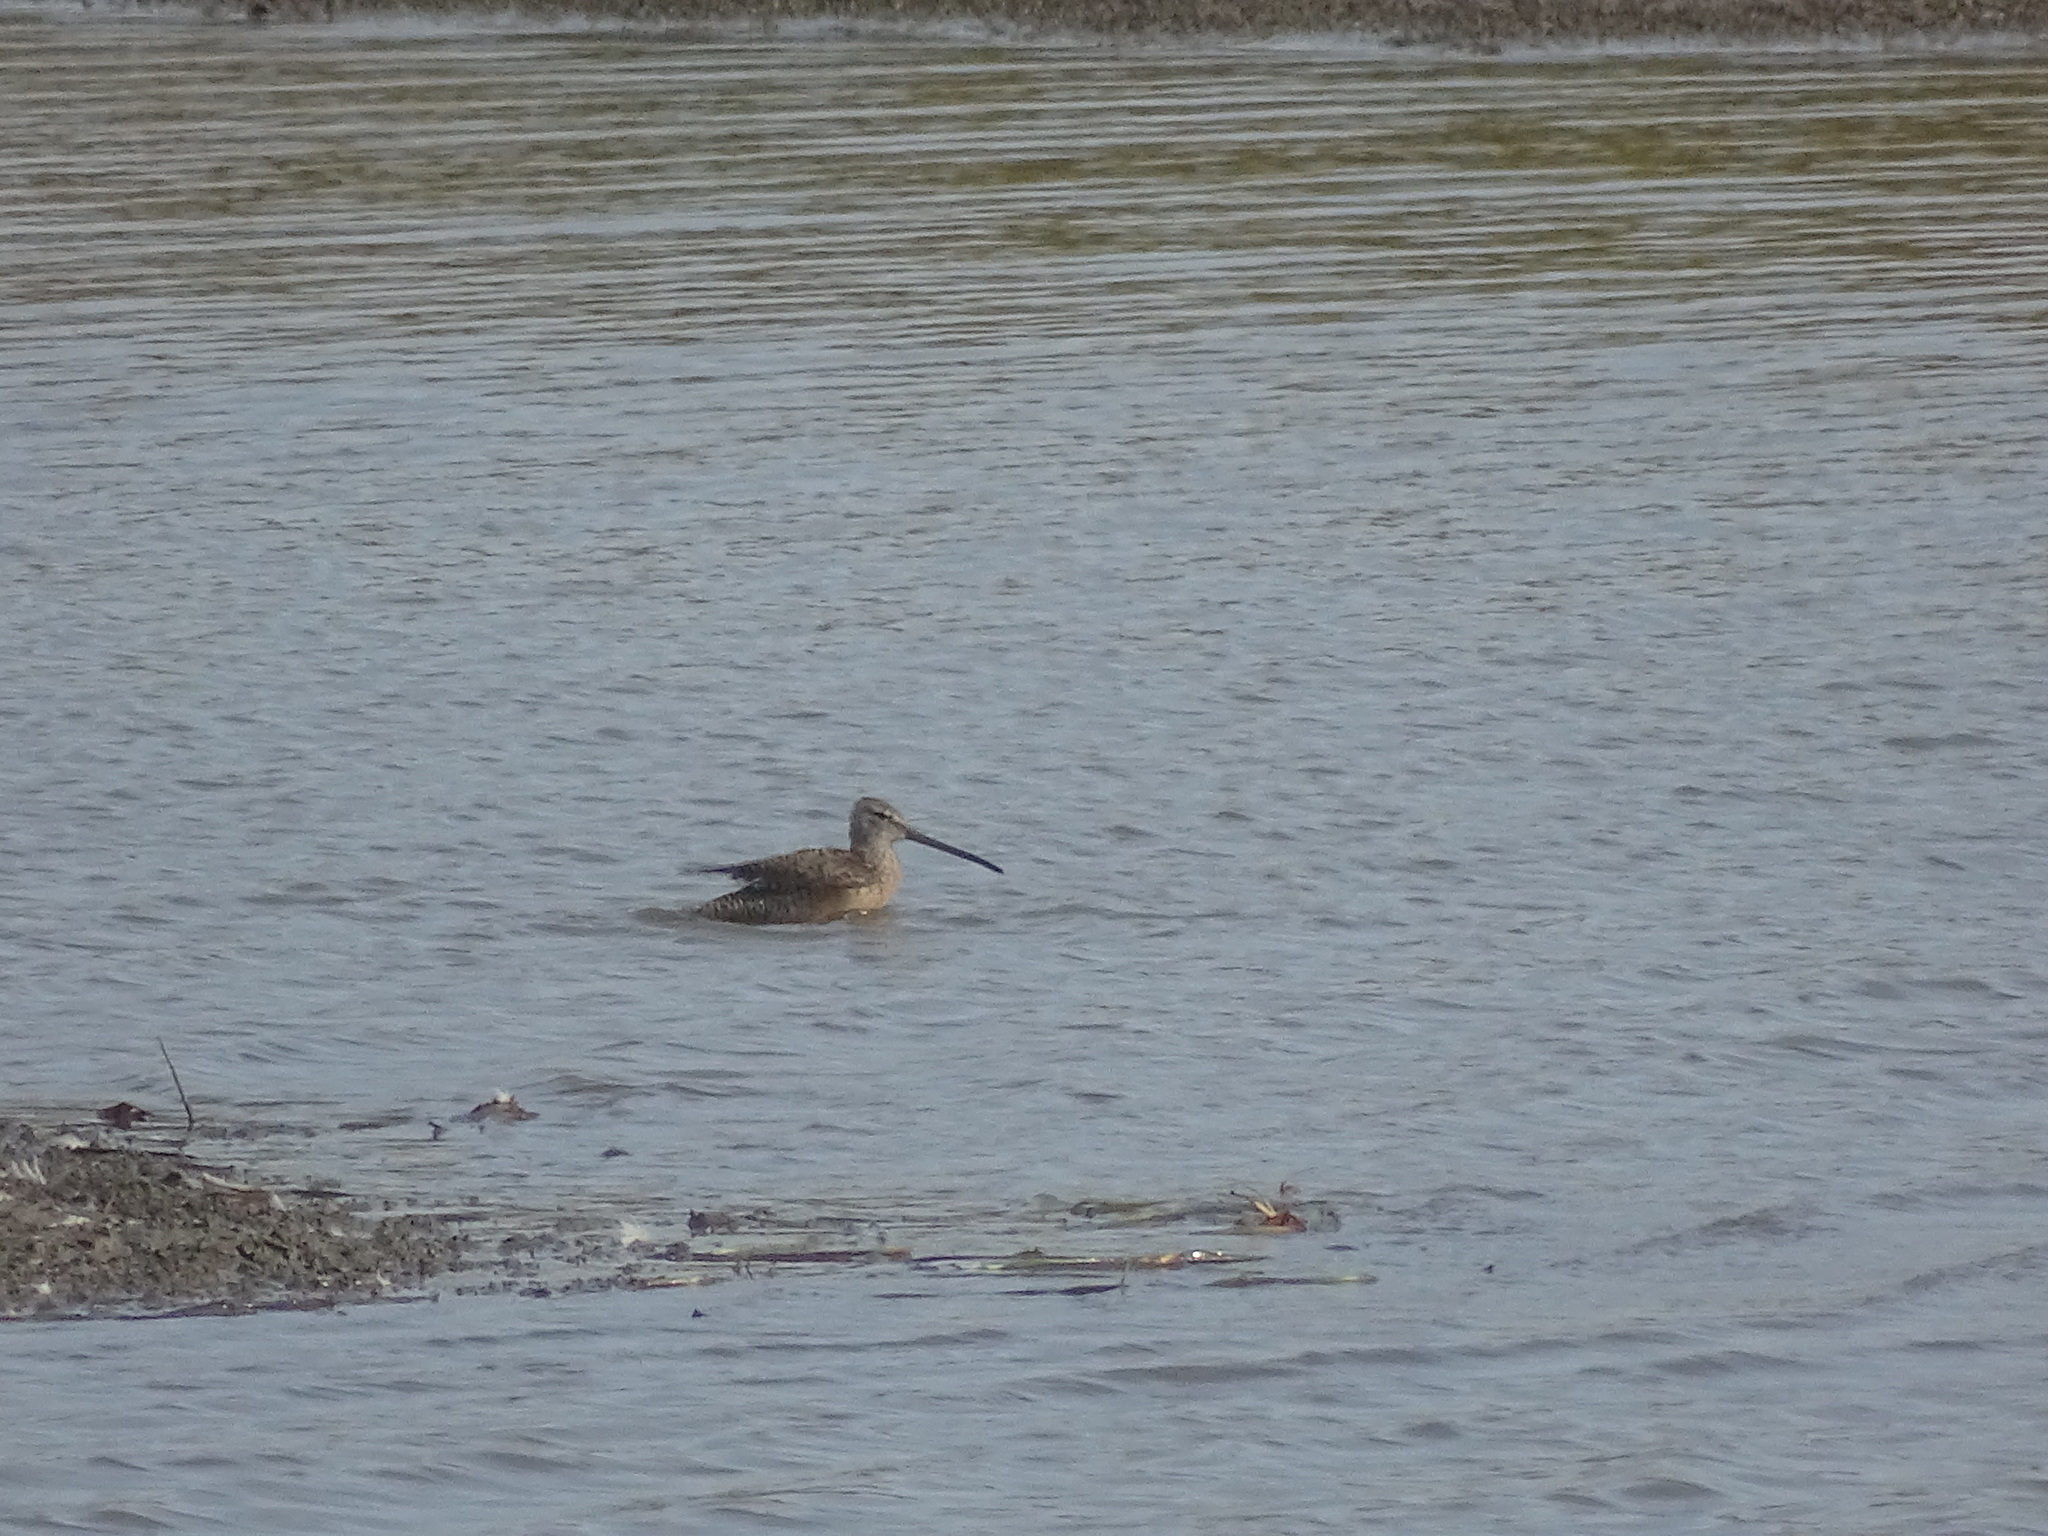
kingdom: Animalia
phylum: Chordata
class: Aves
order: Charadriiformes
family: Scolopacidae
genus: Limnodromus
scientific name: Limnodromus scolopaceus
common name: Long-billed dowitcher
